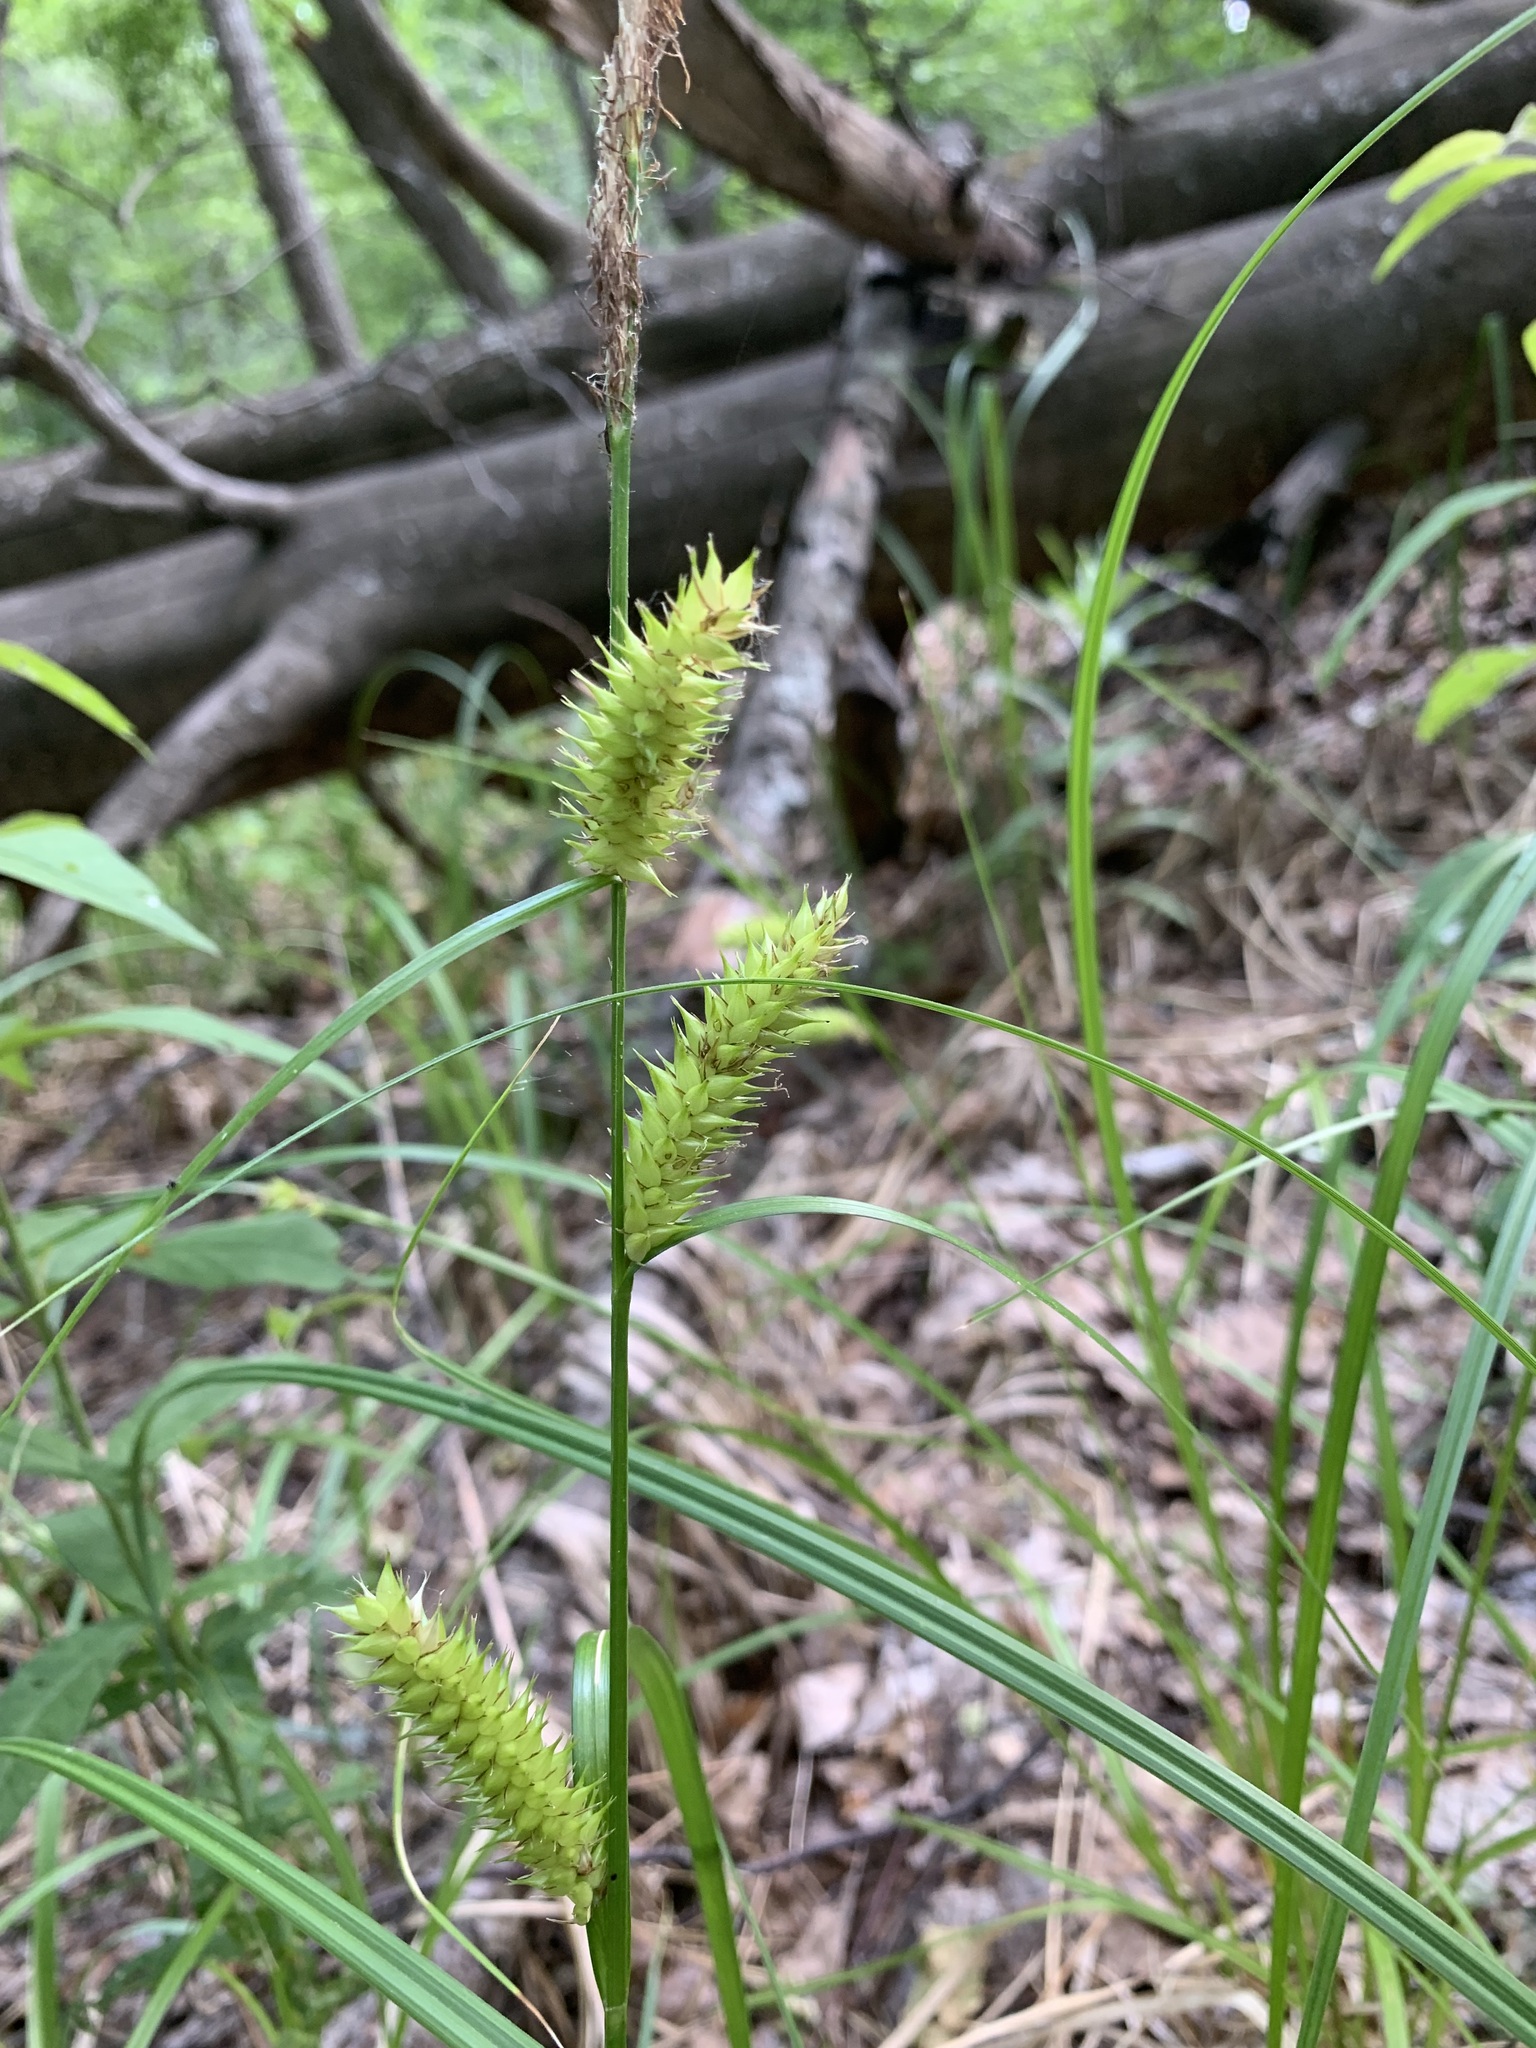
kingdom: Plantae
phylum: Tracheophyta
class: Liliopsida
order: Poales
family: Cyperaceae
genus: Carex
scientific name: Carex vesicaria
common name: Bladder-sedge
